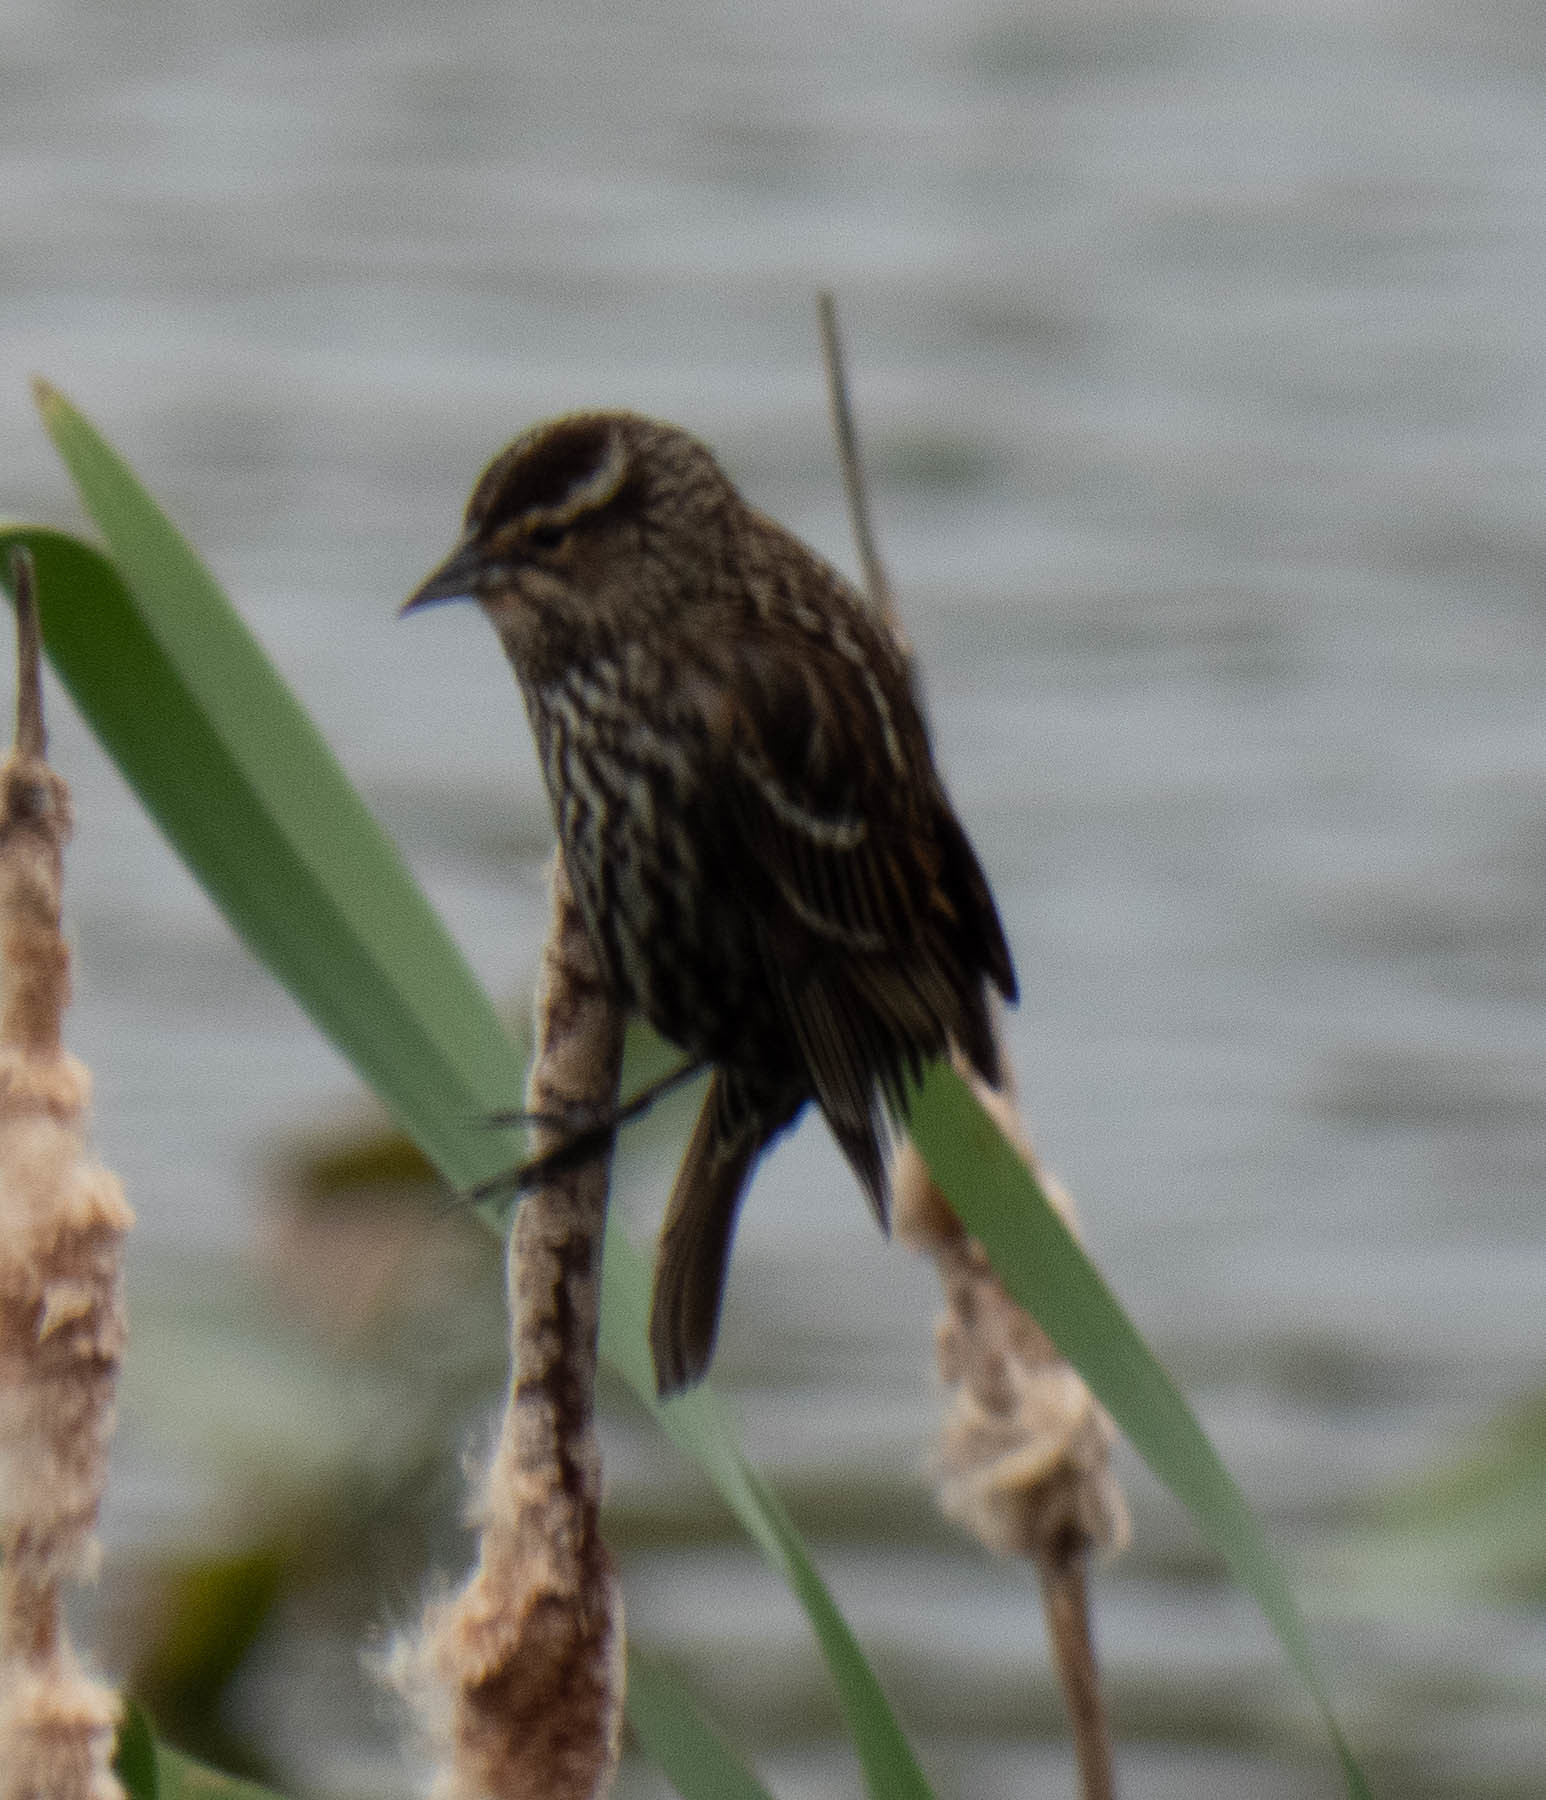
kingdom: Animalia
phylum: Chordata
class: Aves
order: Passeriformes
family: Icteridae
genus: Agelaius
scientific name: Agelaius phoeniceus
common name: Red-winged blackbird
